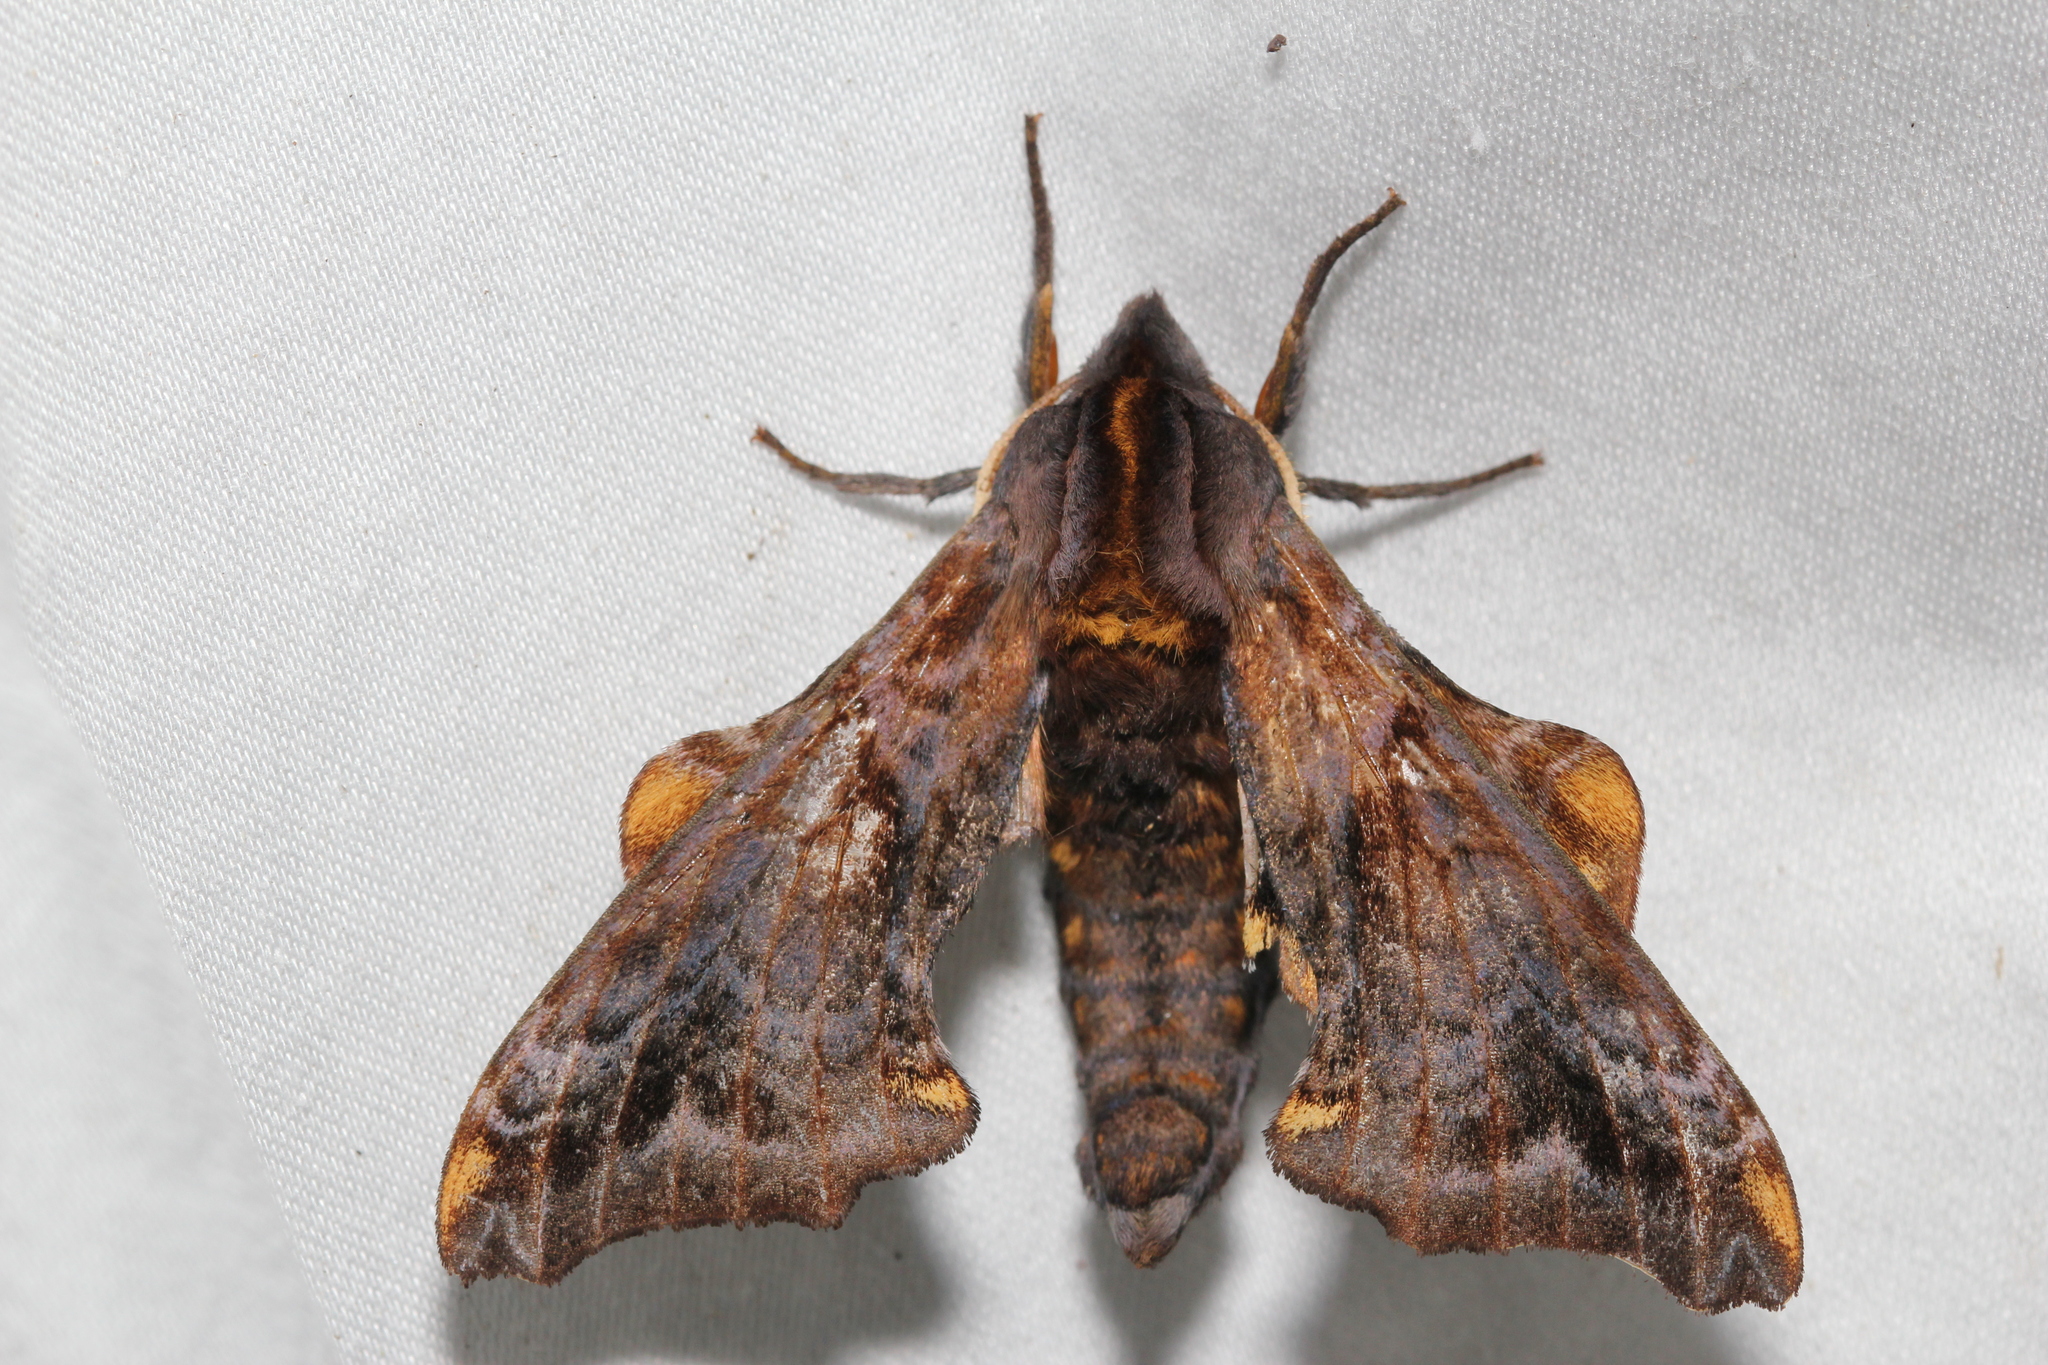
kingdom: Animalia
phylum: Arthropoda
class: Insecta
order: Lepidoptera
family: Sphingidae
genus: Paonias
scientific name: Paonias myops
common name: Small-eyed sphinx
